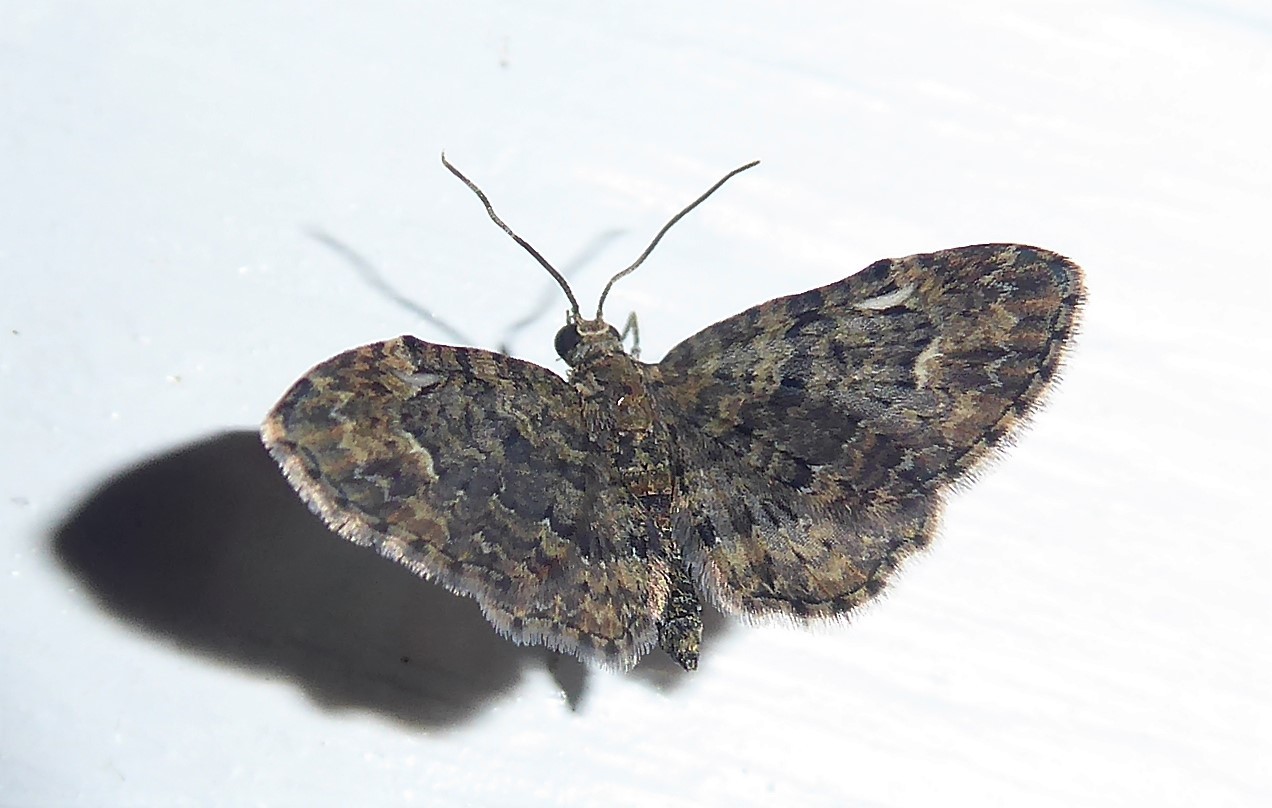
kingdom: Animalia
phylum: Arthropoda
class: Insecta
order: Lepidoptera
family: Geometridae
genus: Pasiphilodes
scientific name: Pasiphilodes testulata
